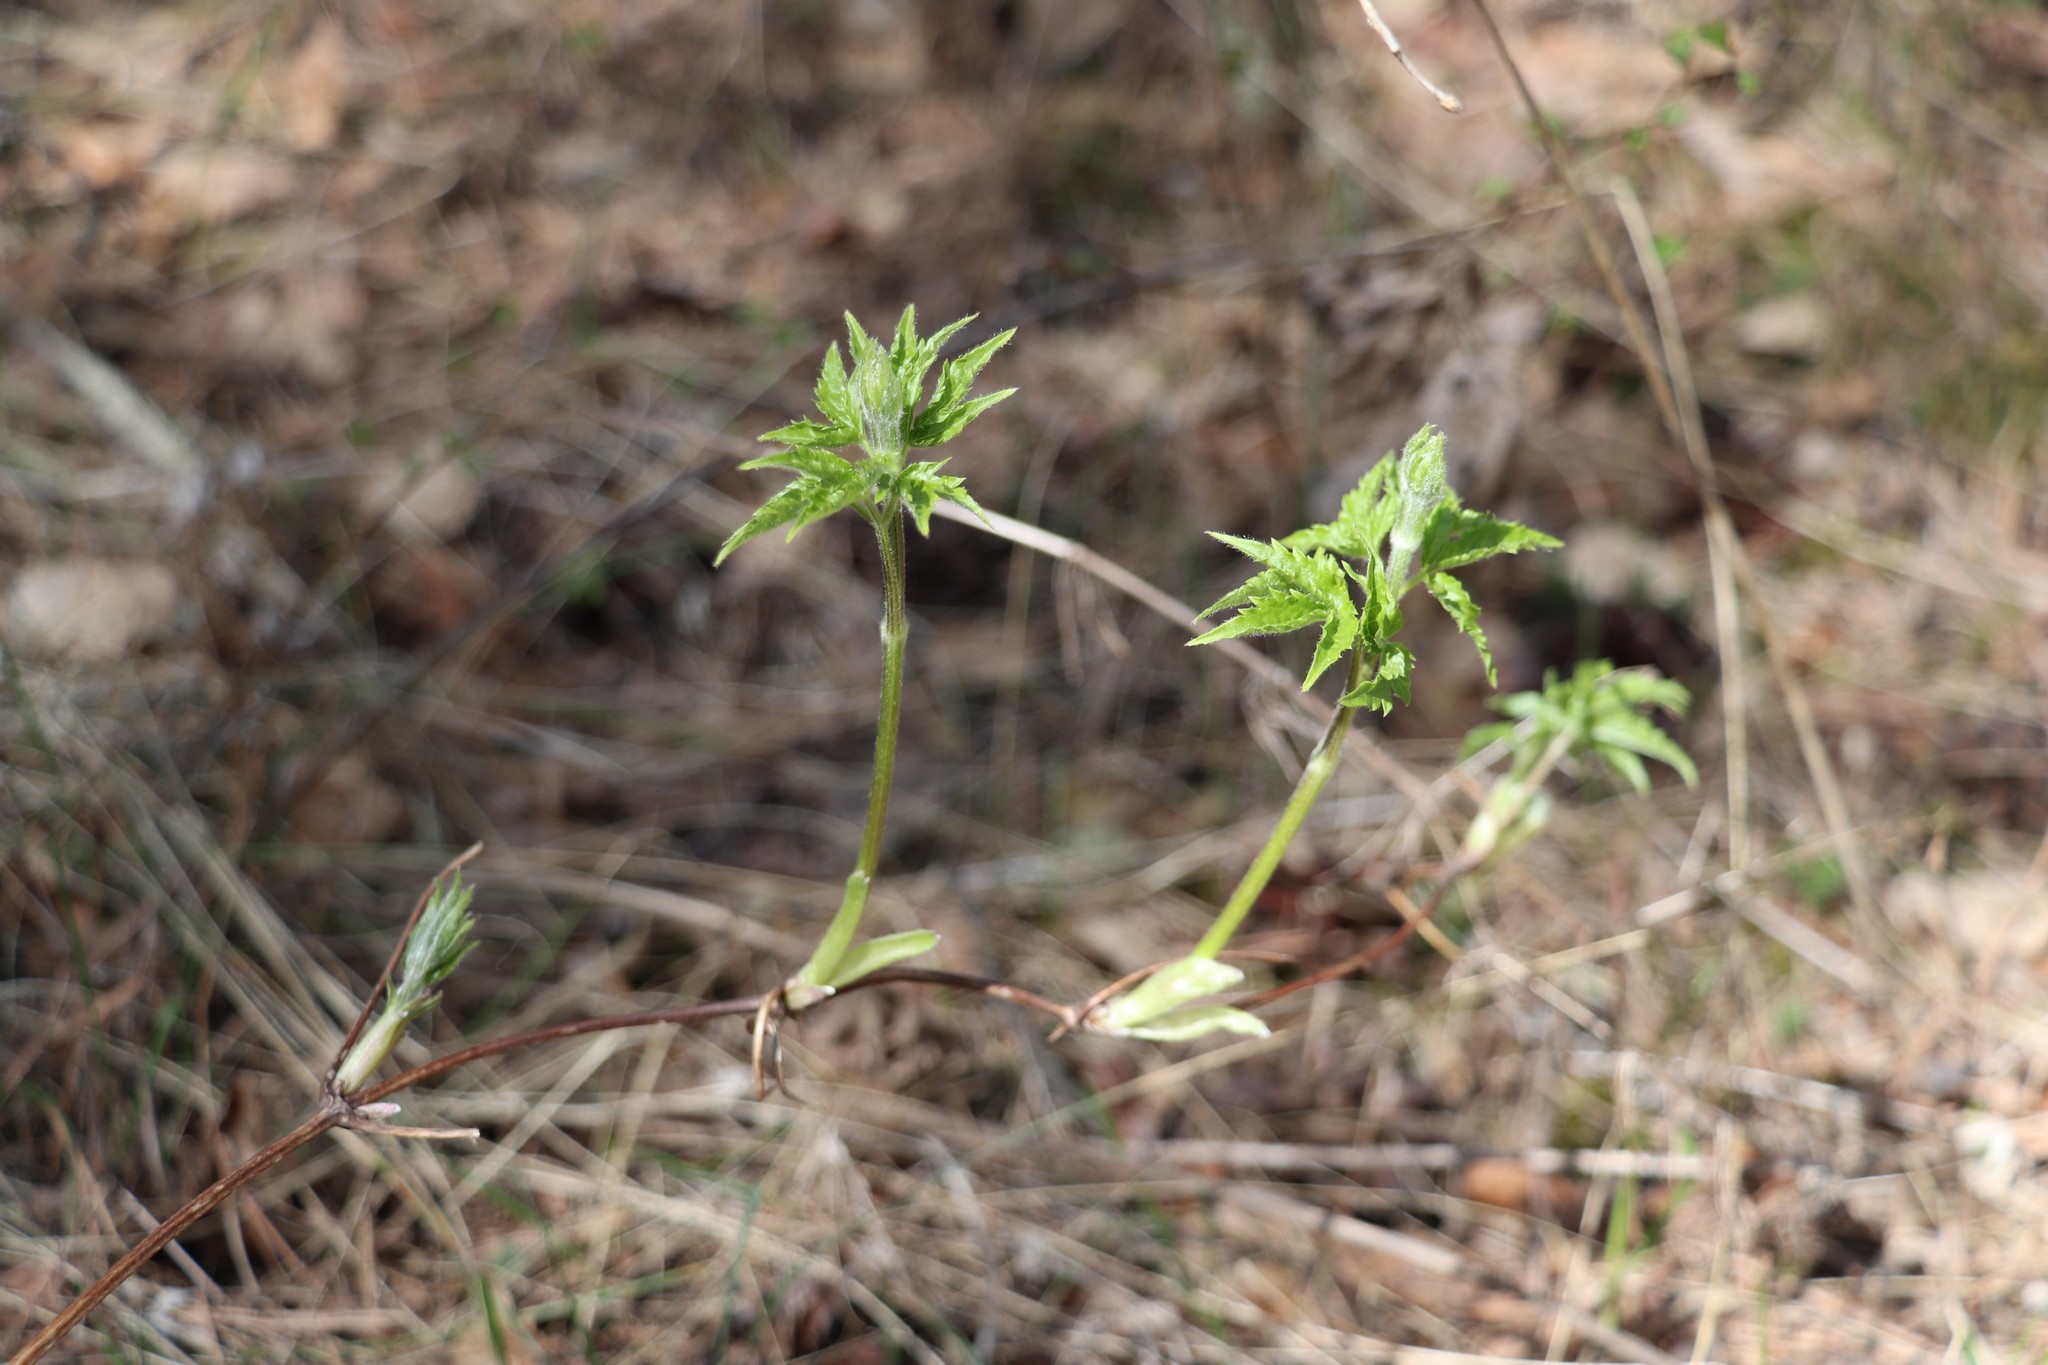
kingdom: Plantae
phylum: Tracheophyta
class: Magnoliopsida
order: Ranunculales
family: Ranunculaceae
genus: Clematis
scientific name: Clematis sibirica
